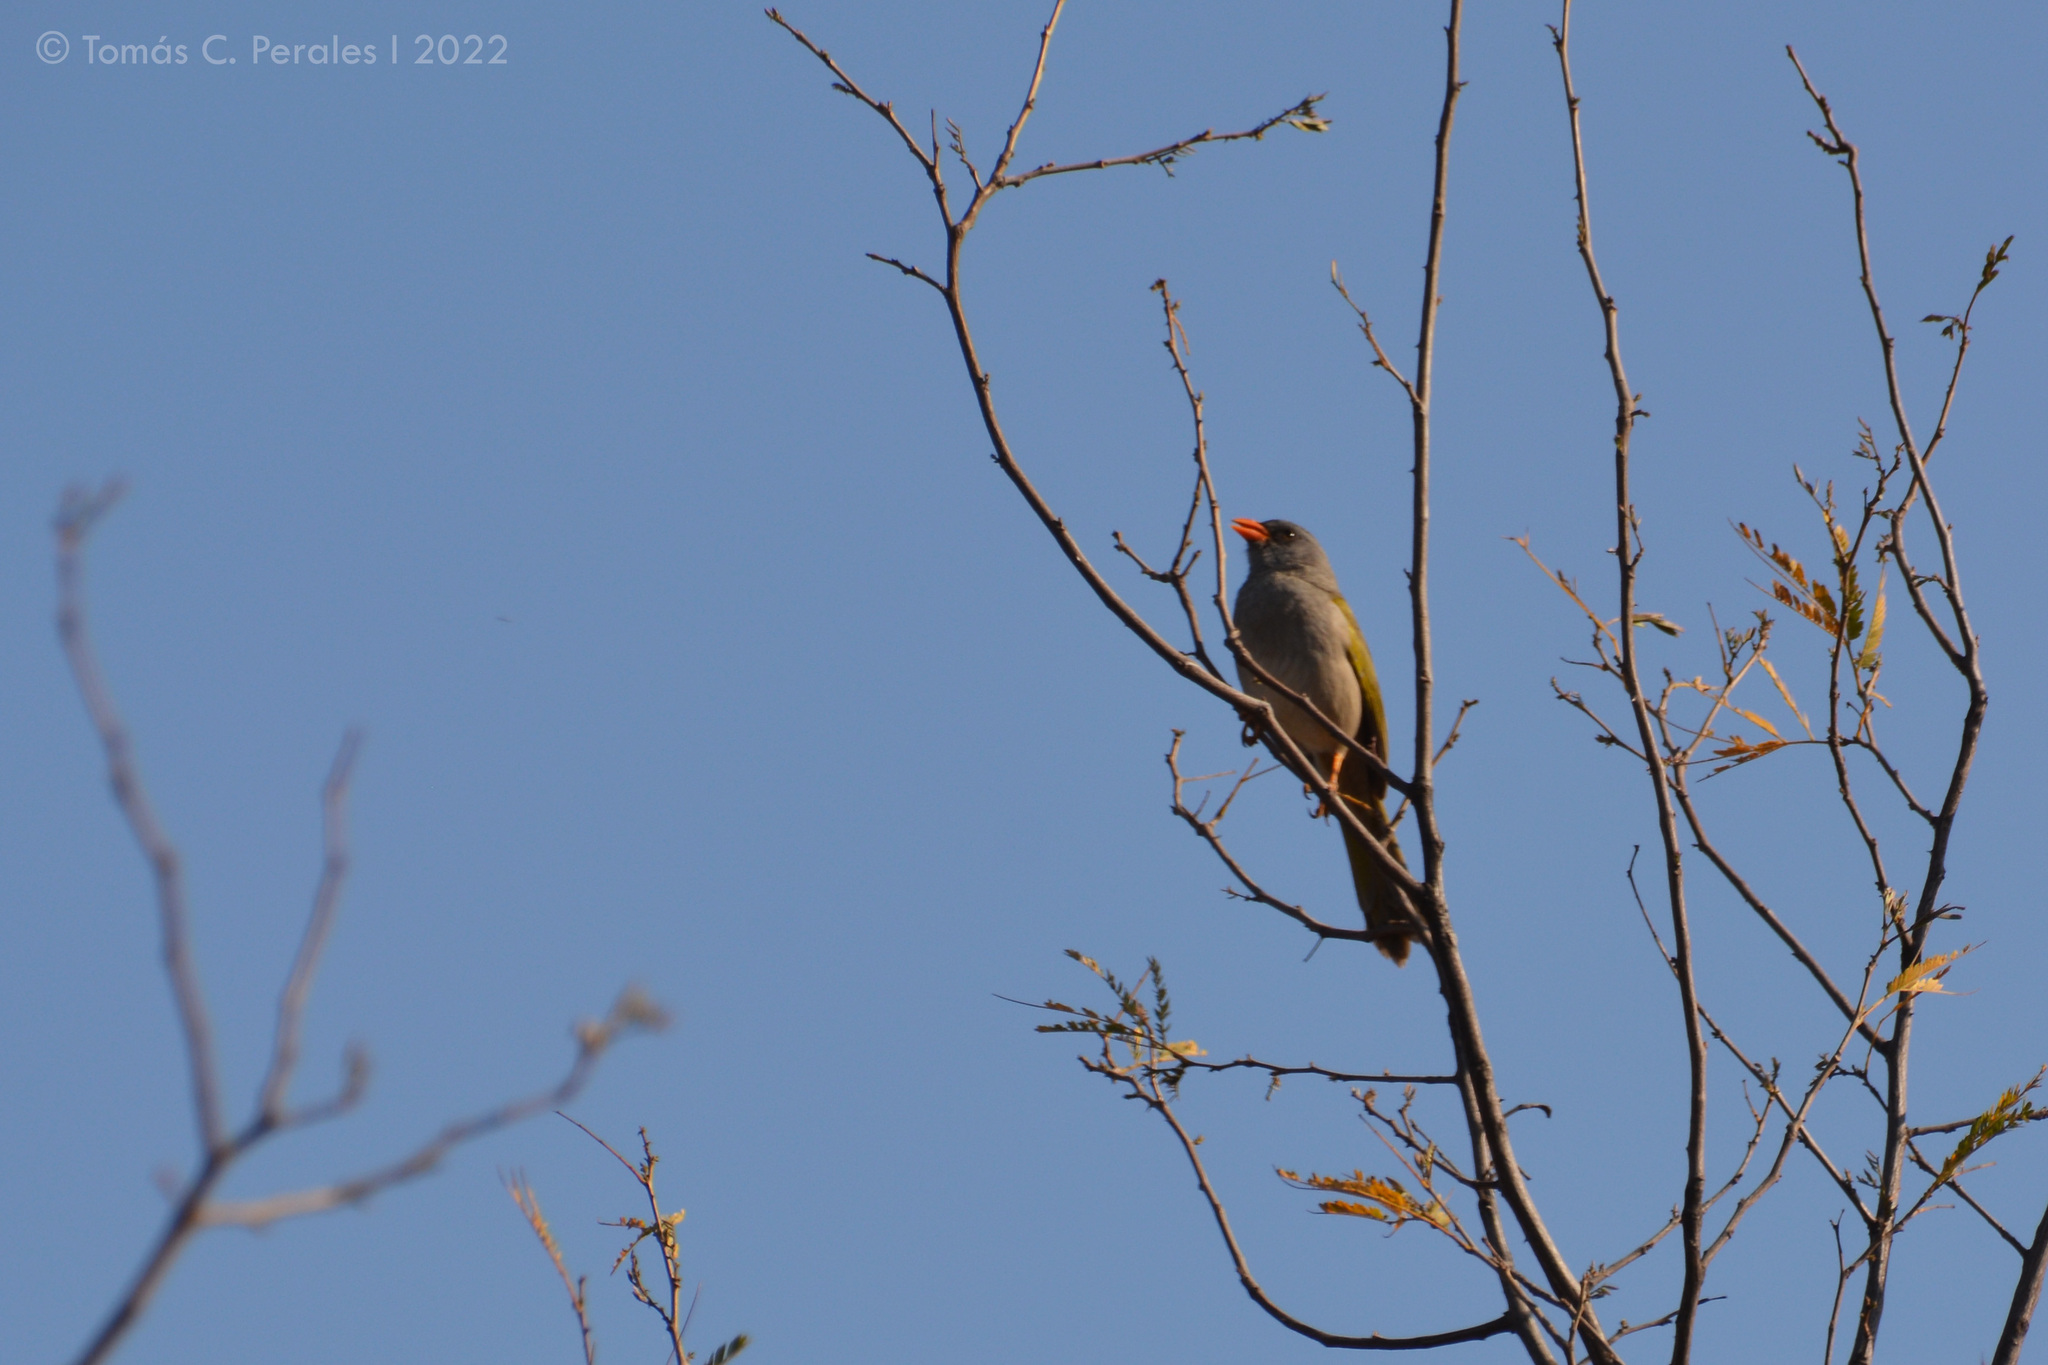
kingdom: Animalia
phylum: Chordata
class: Aves
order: Passeriformes
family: Thraupidae
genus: Embernagra
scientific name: Embernagra platensis
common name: Pampa finch
